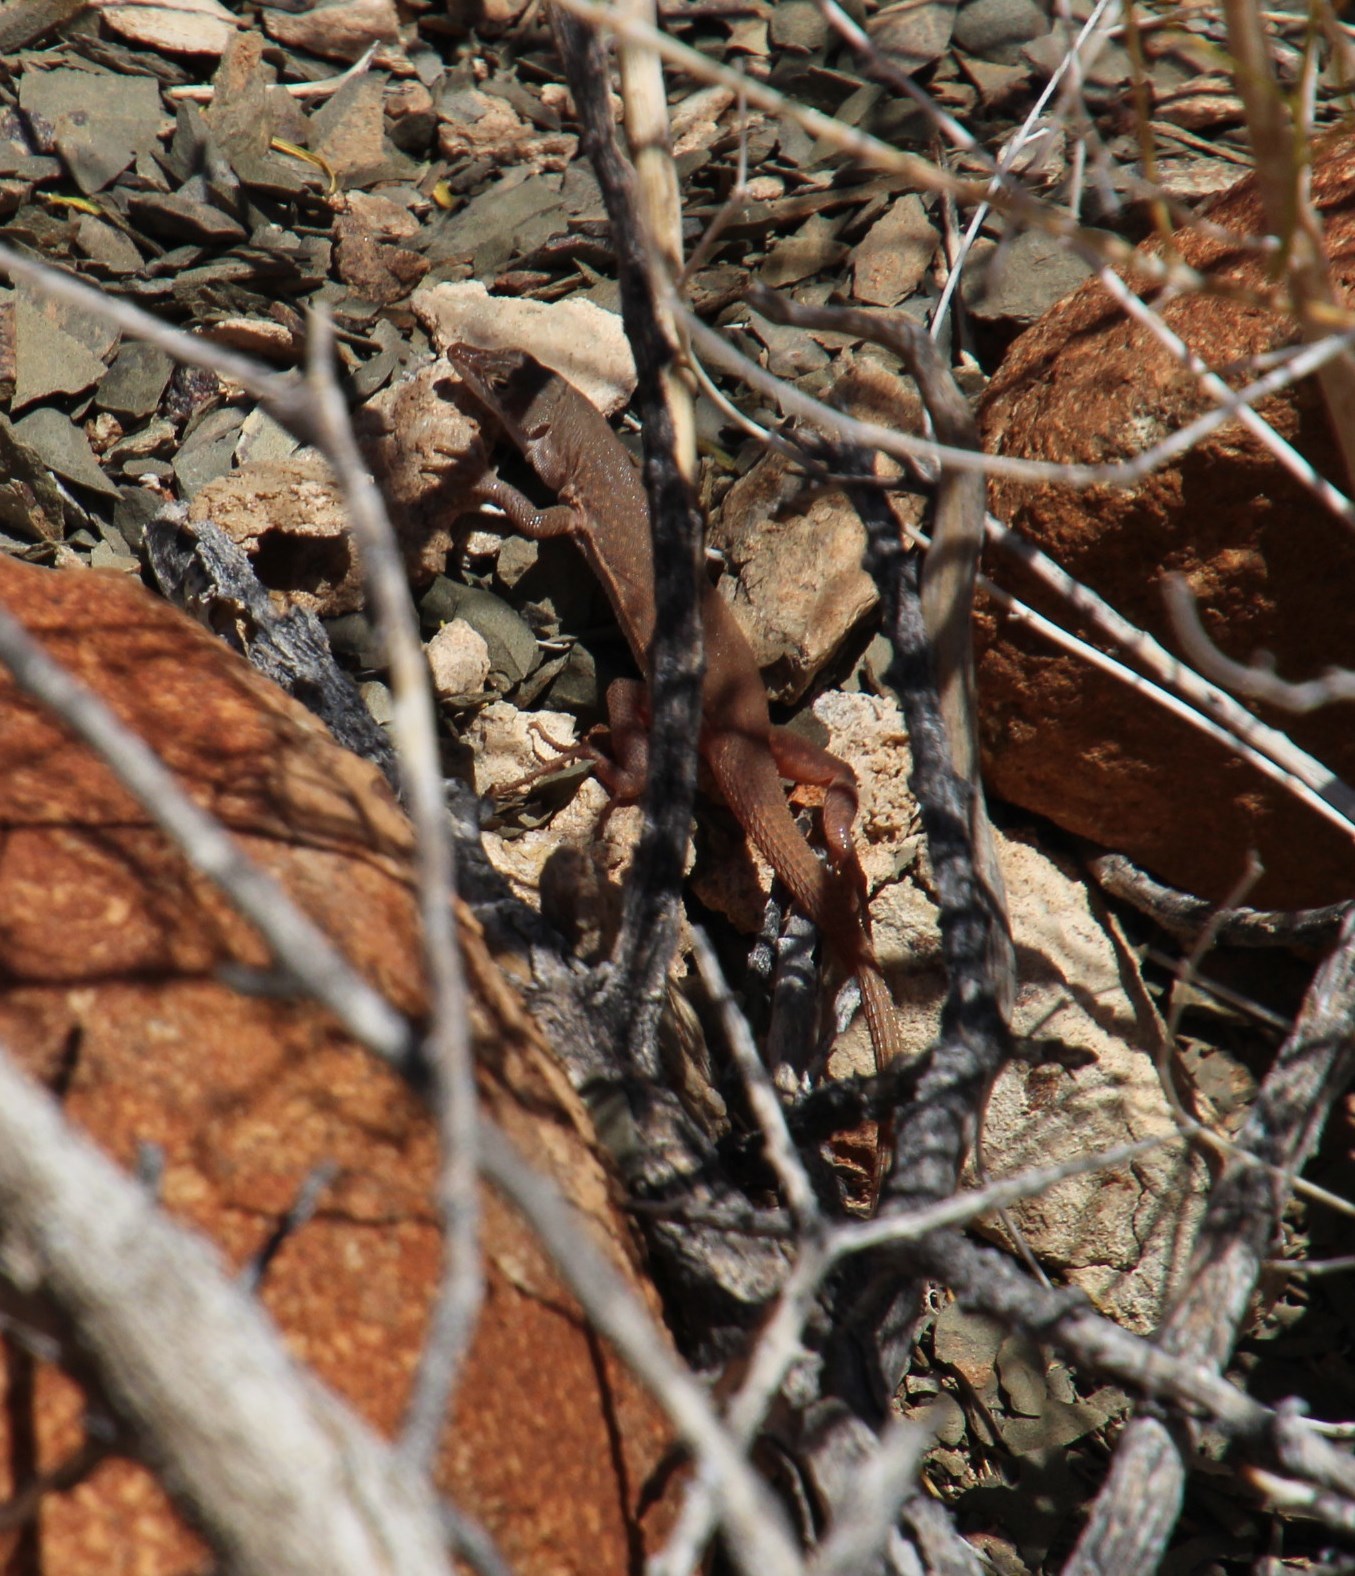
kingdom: Animalia
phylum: Chordata
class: Squamata
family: Lacertidae
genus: Pedioplanis
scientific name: Pedioplanis inornata
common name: Plain sand lizard
